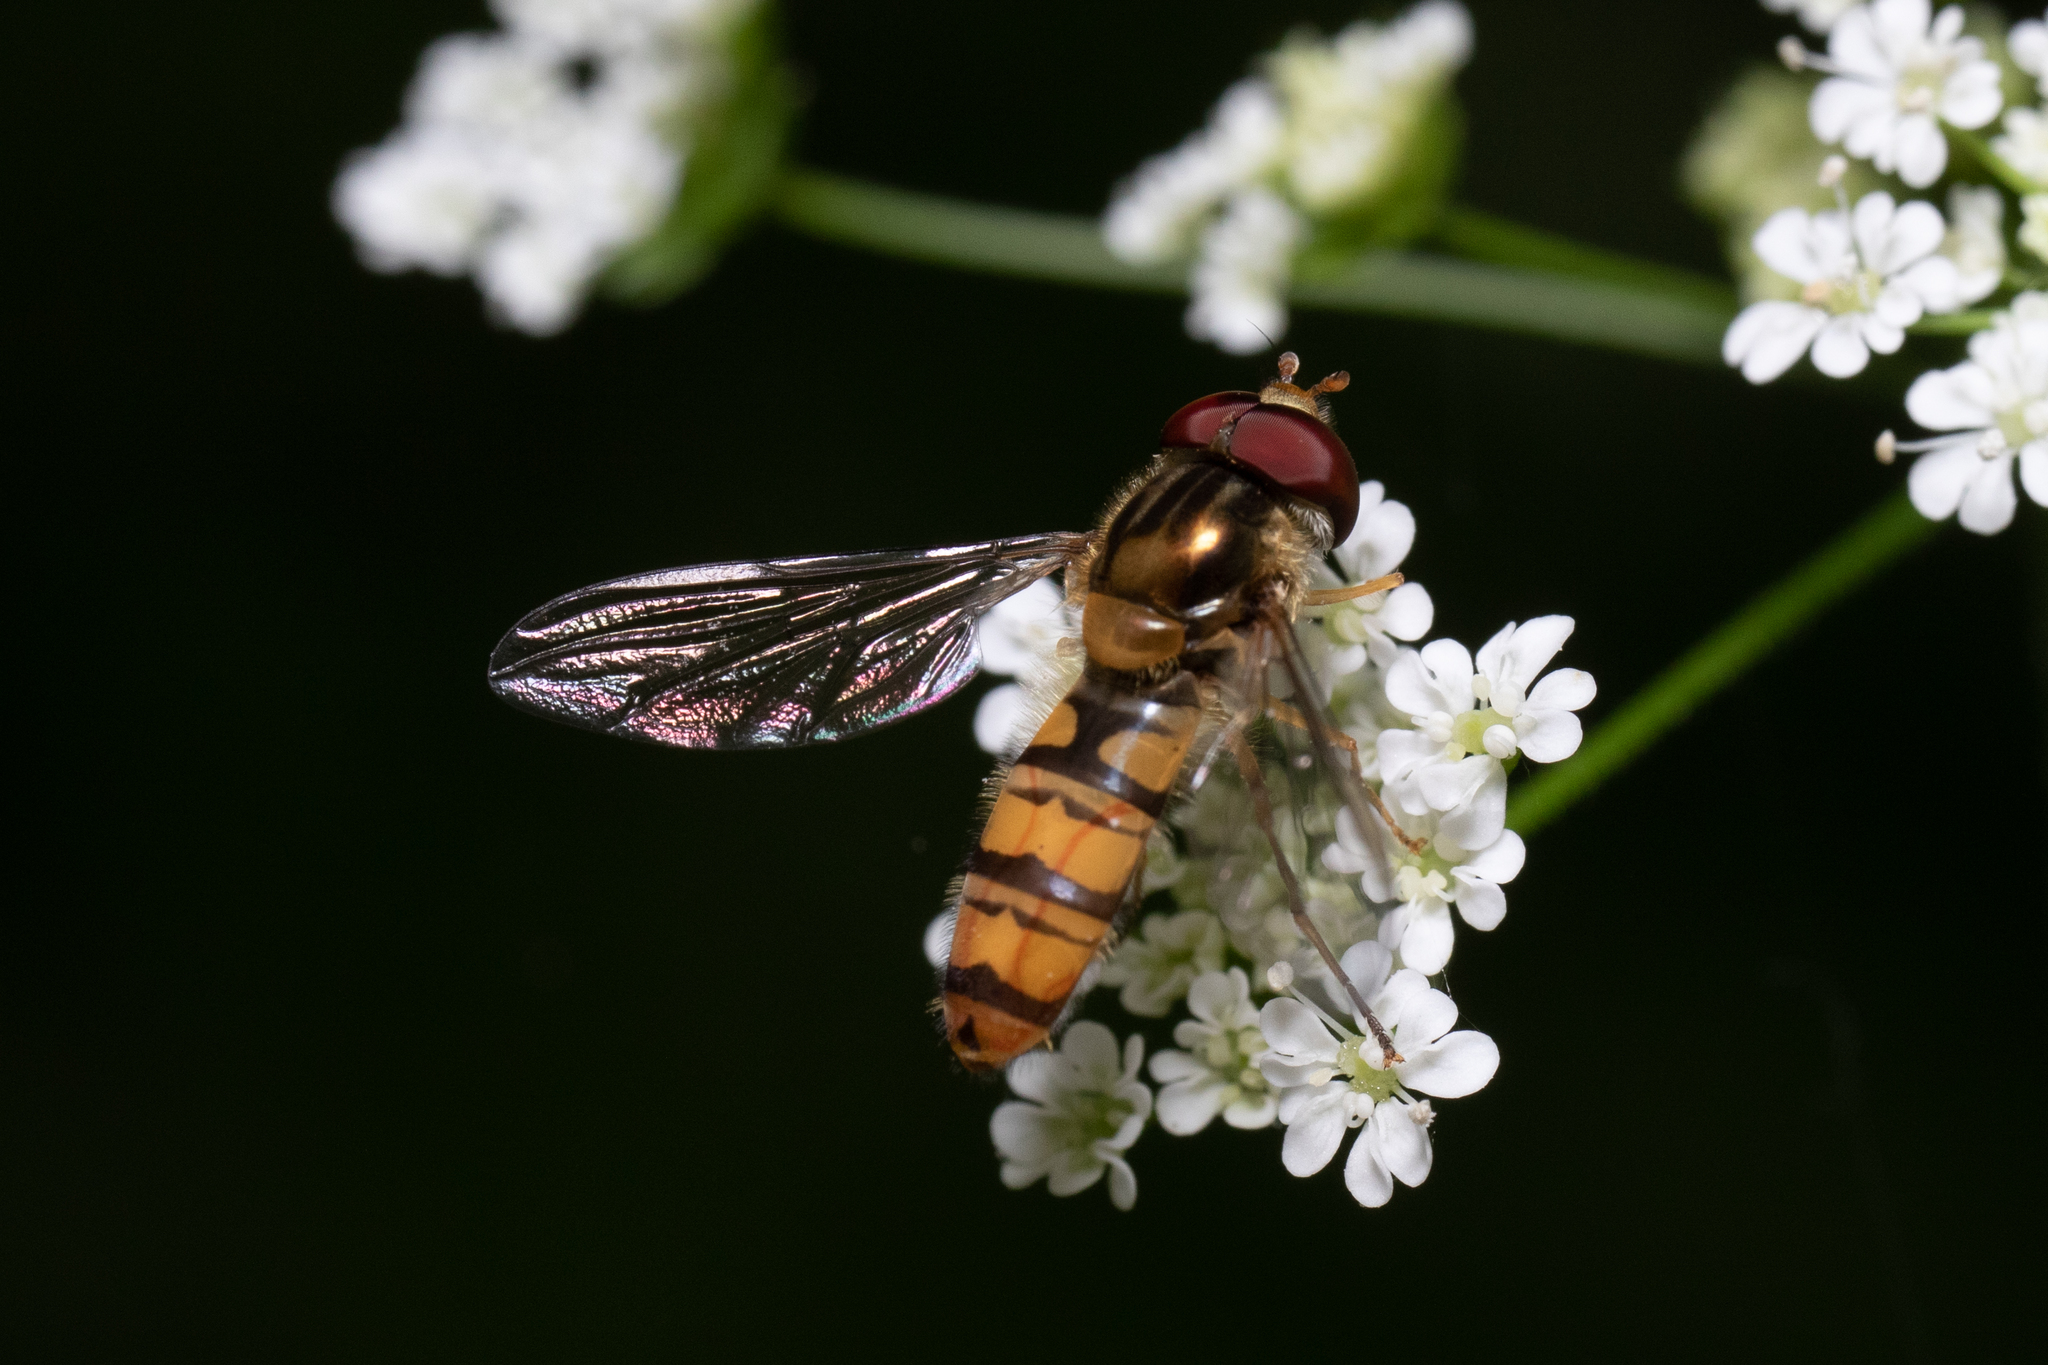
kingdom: Animalia
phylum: Arthropoda
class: Insecta
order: Diptera
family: Syrphidae
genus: Episyrphus
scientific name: Episyrphus balteatus
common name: Marmalade hoverfly
